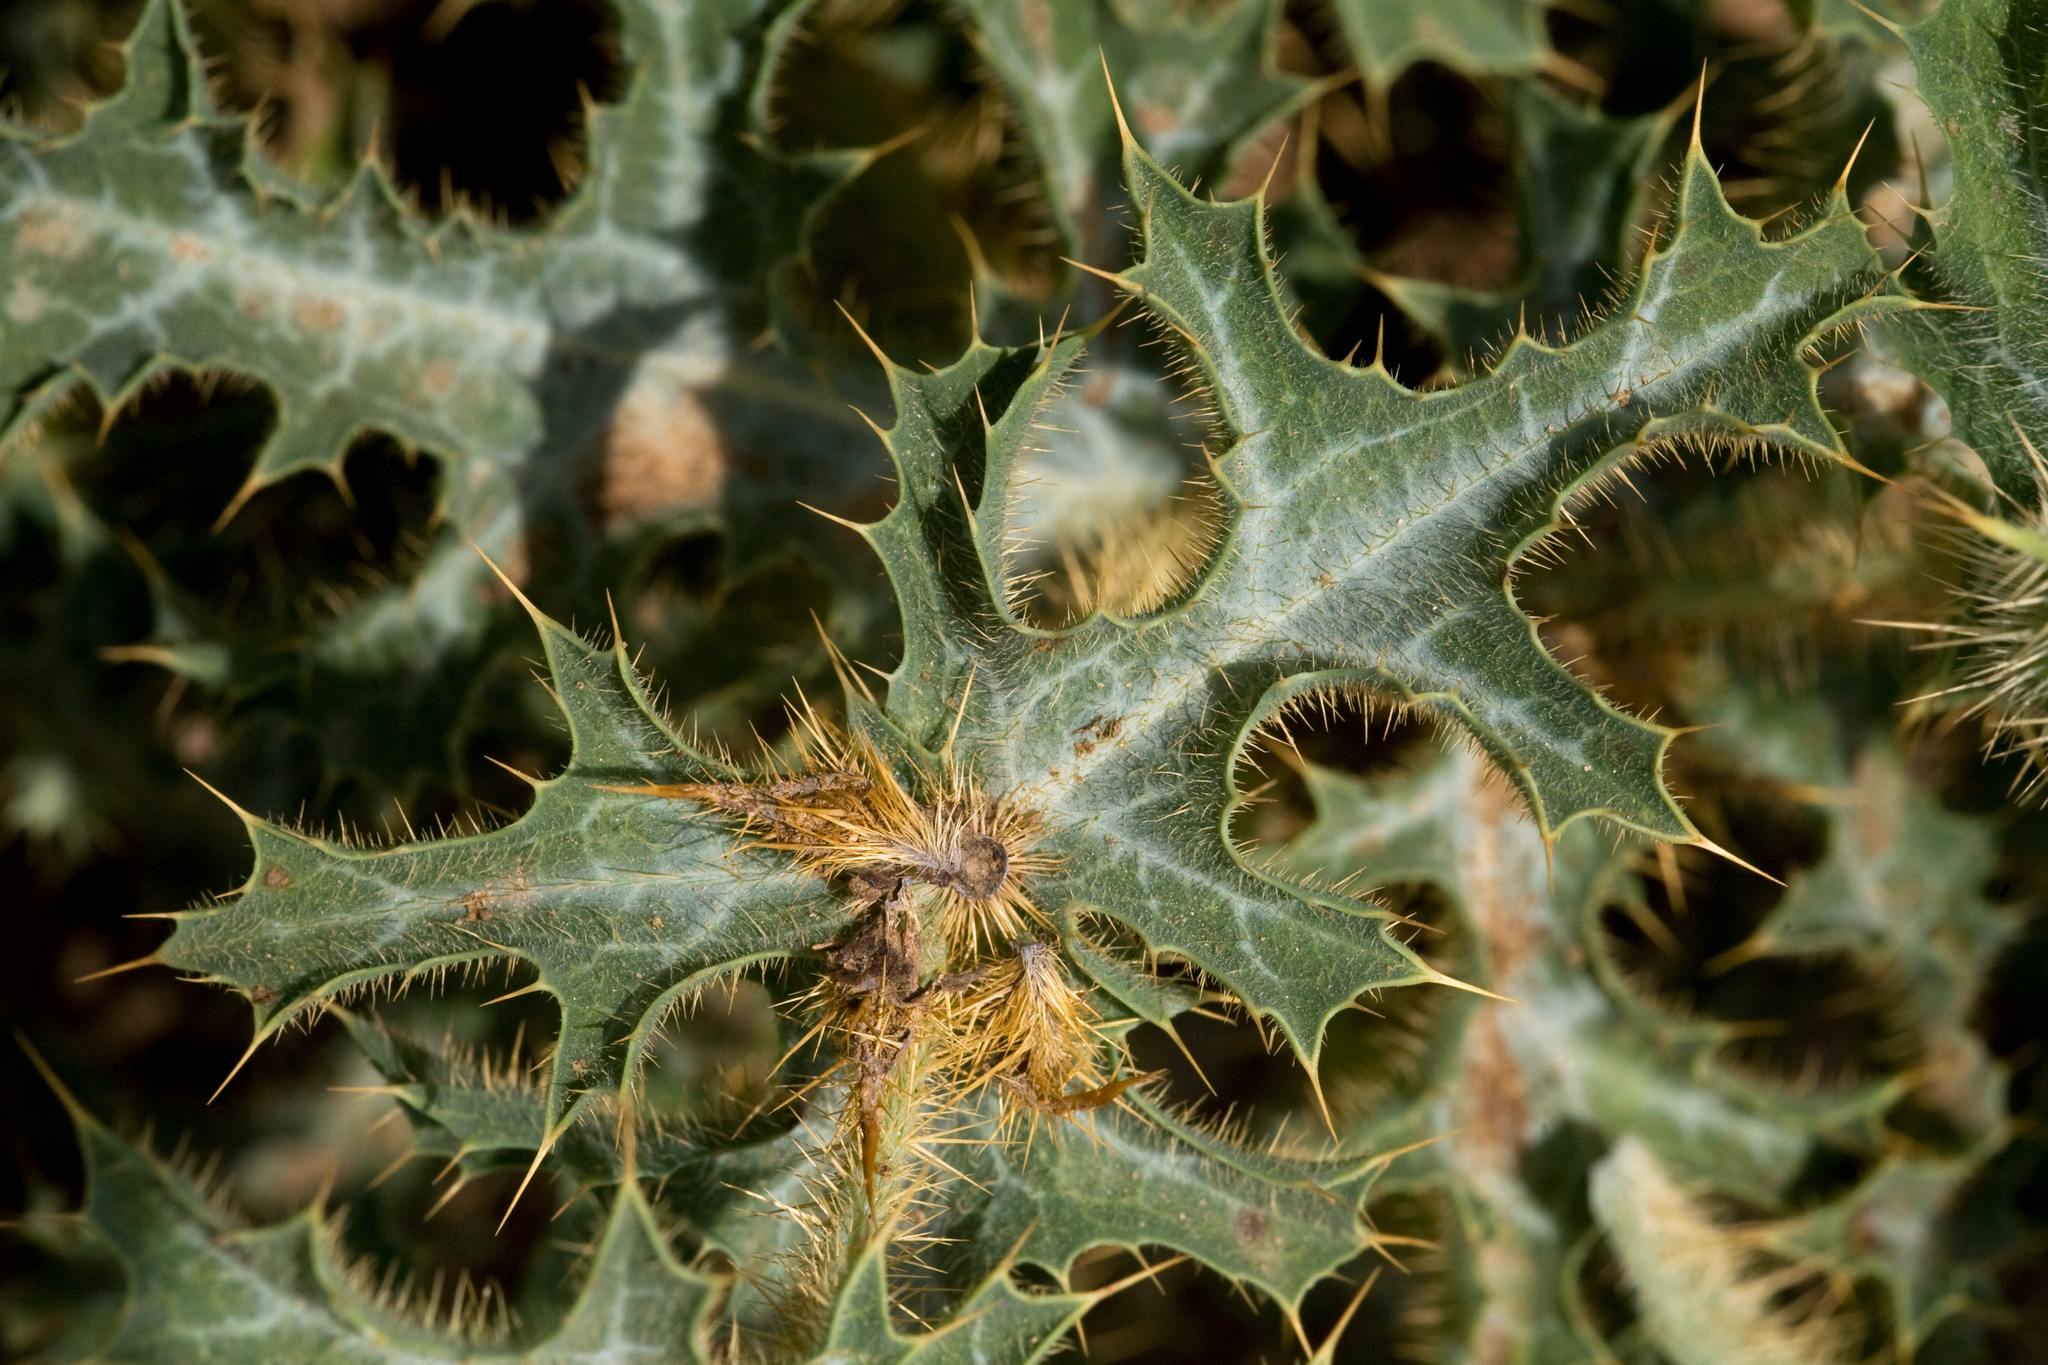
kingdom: Plantae
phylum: Tracheophyta
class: Magnoliopsida
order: Ranunculales
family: Papaveraceae
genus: Argemone
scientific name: Argemone squarrosa
